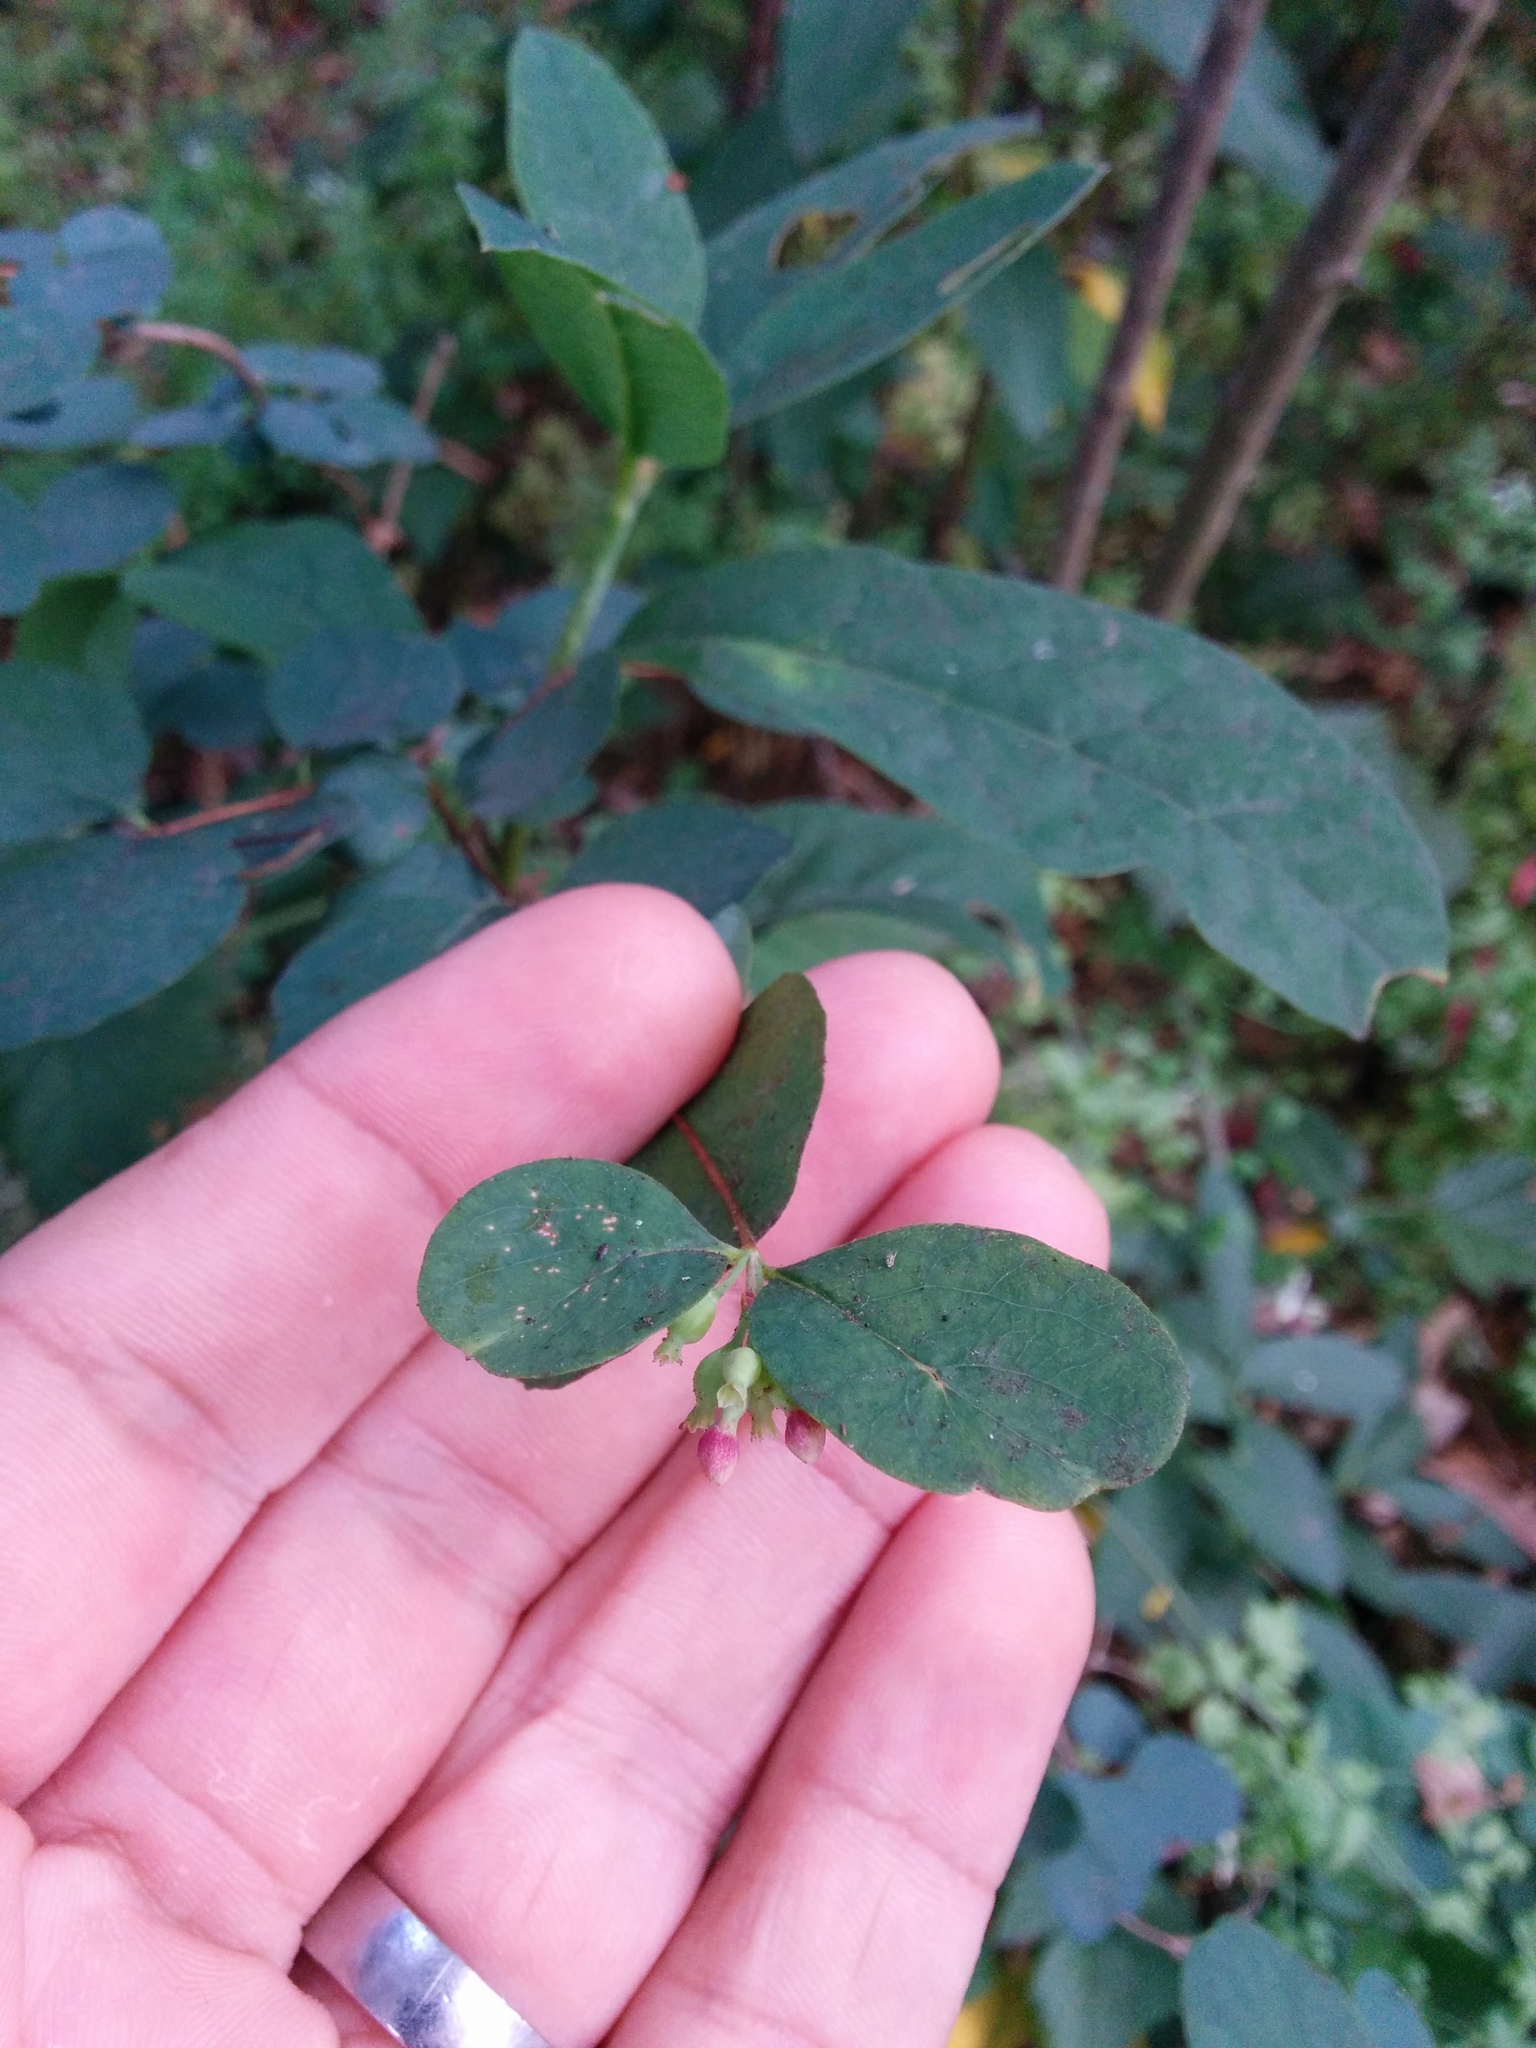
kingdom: Plantae
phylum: Tracheophyta
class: Magnoliopsida
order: Dipsacales
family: Caprifoliaceae
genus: Symphoricarpos
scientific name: Symphoricarpos albus
